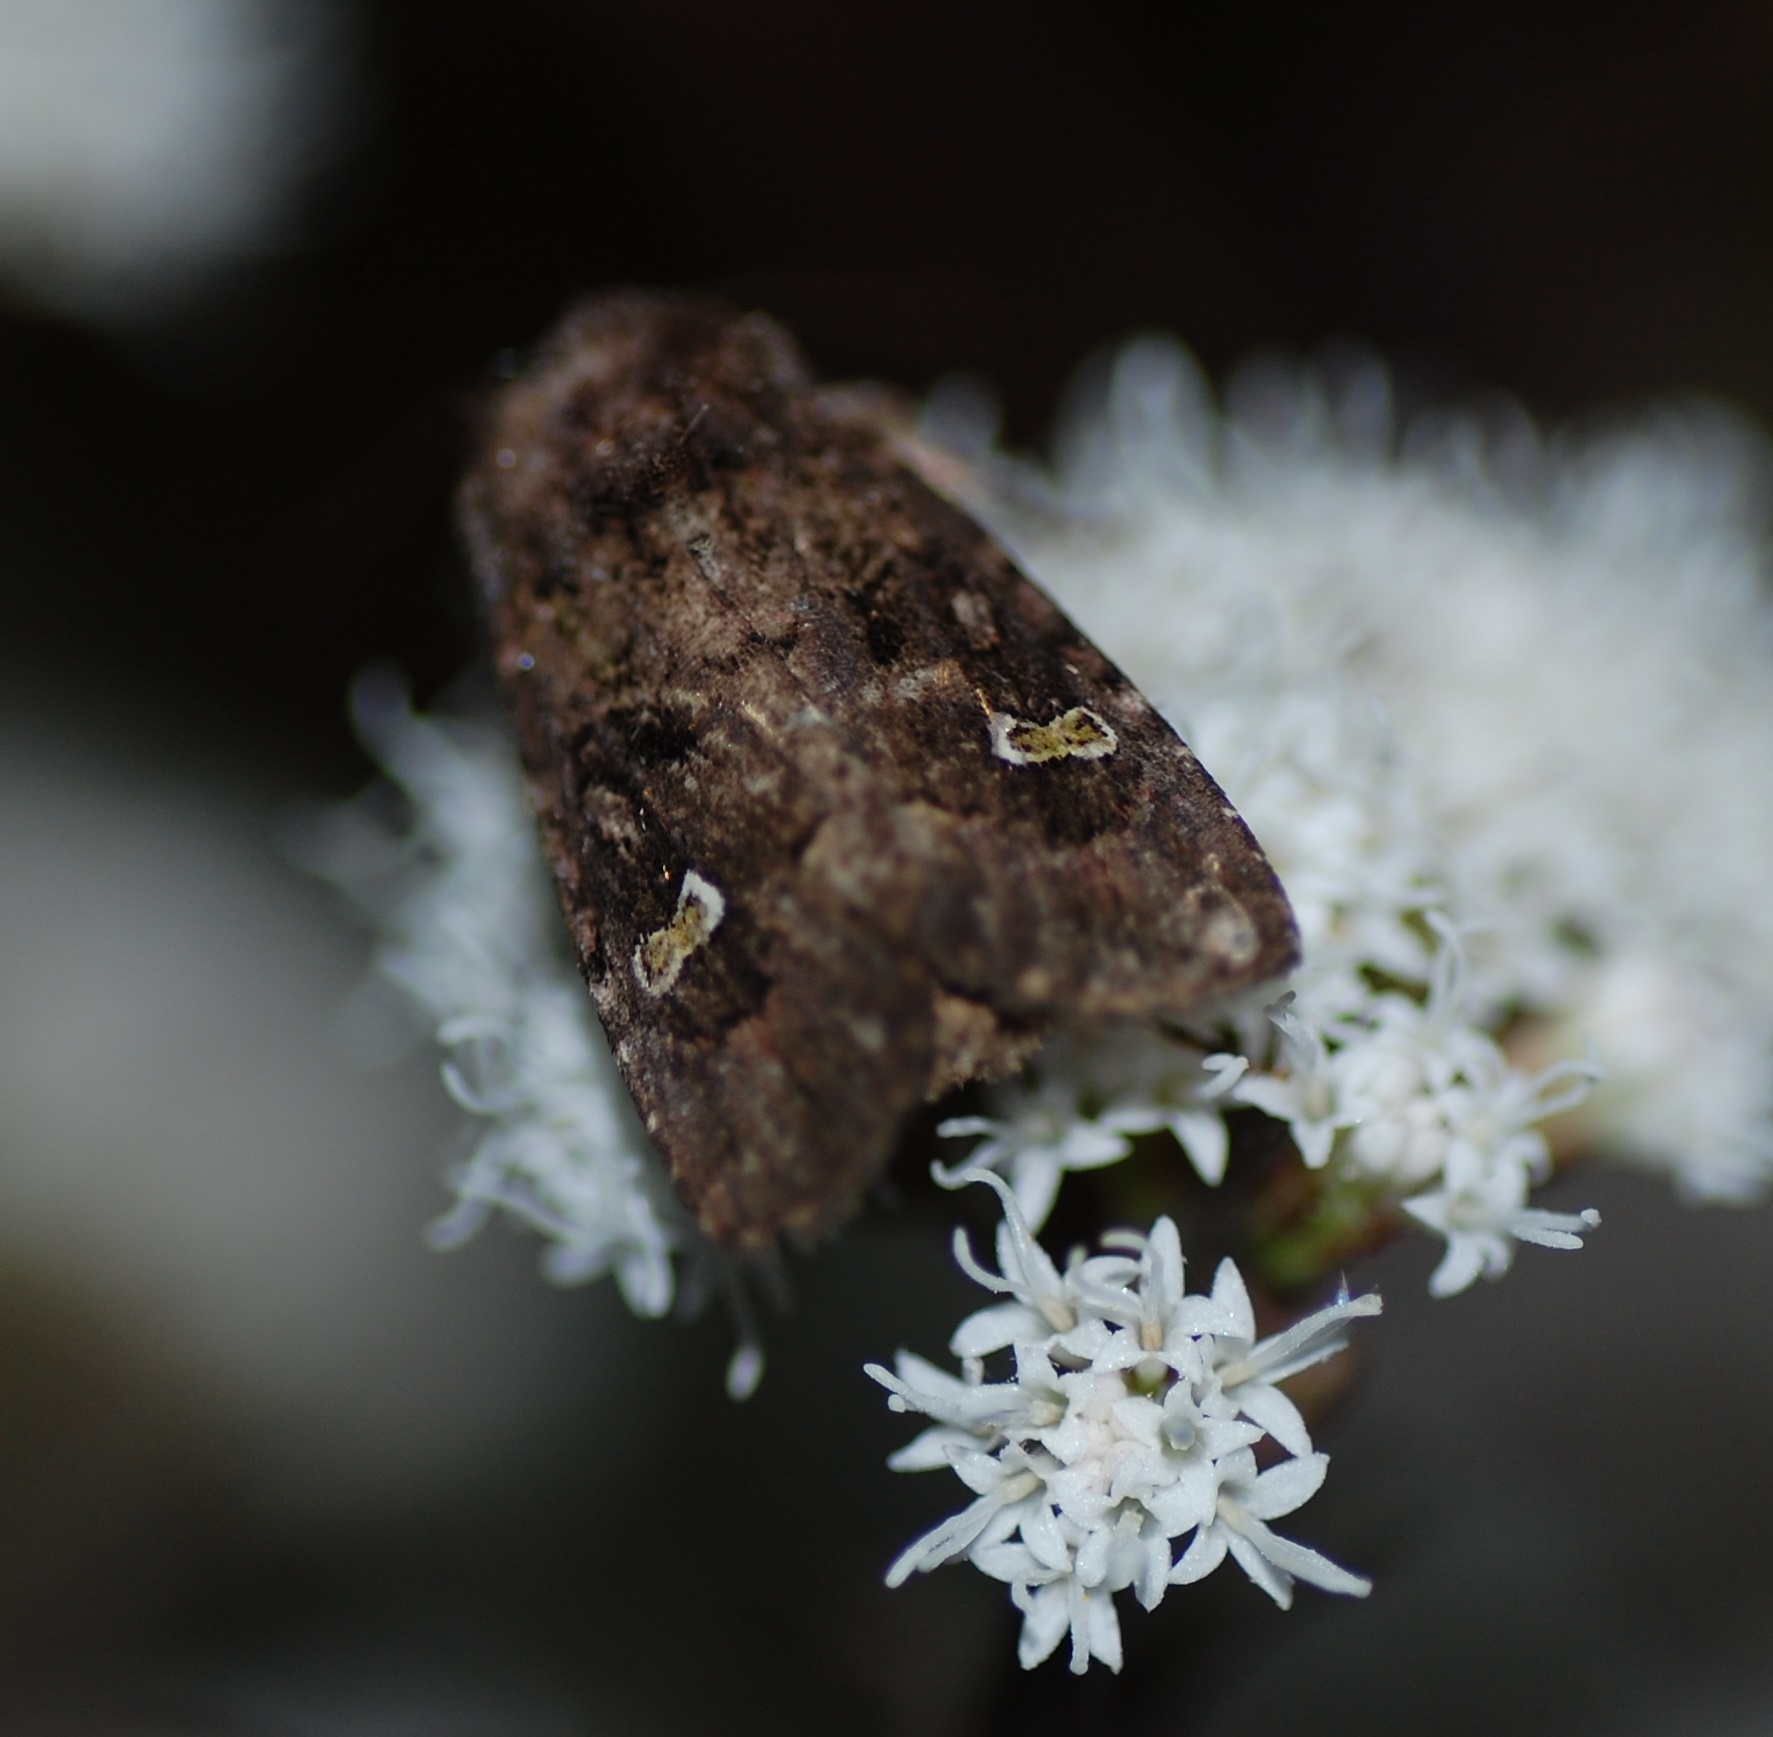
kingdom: Animalia
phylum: Arthropoda
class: Insecta
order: Lepidoptera
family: Noctuidae
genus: Lacinipolia
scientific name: Lacinipolia renigera
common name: Kidney-spotted minor
